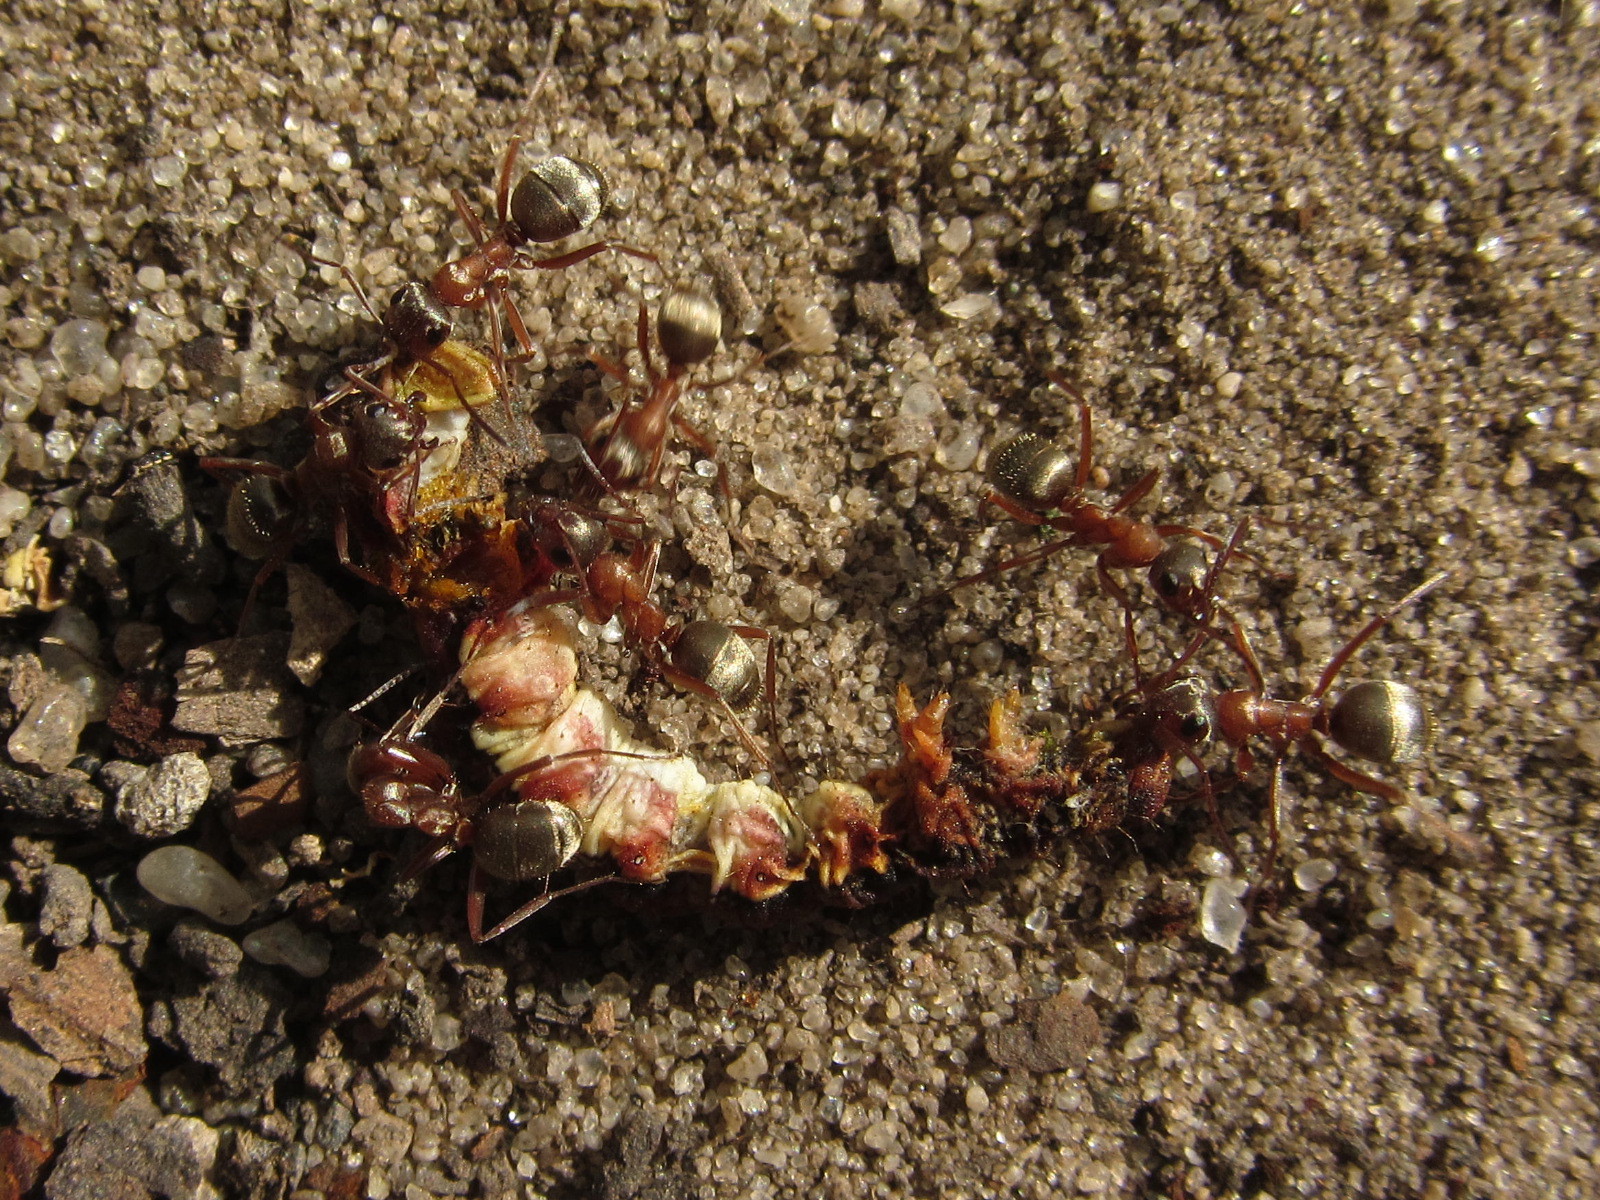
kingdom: Animalia
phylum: Arthropoda
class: Insecta
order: Hymenoptera
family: Formicidae
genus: Formica
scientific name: Formica cinerea
